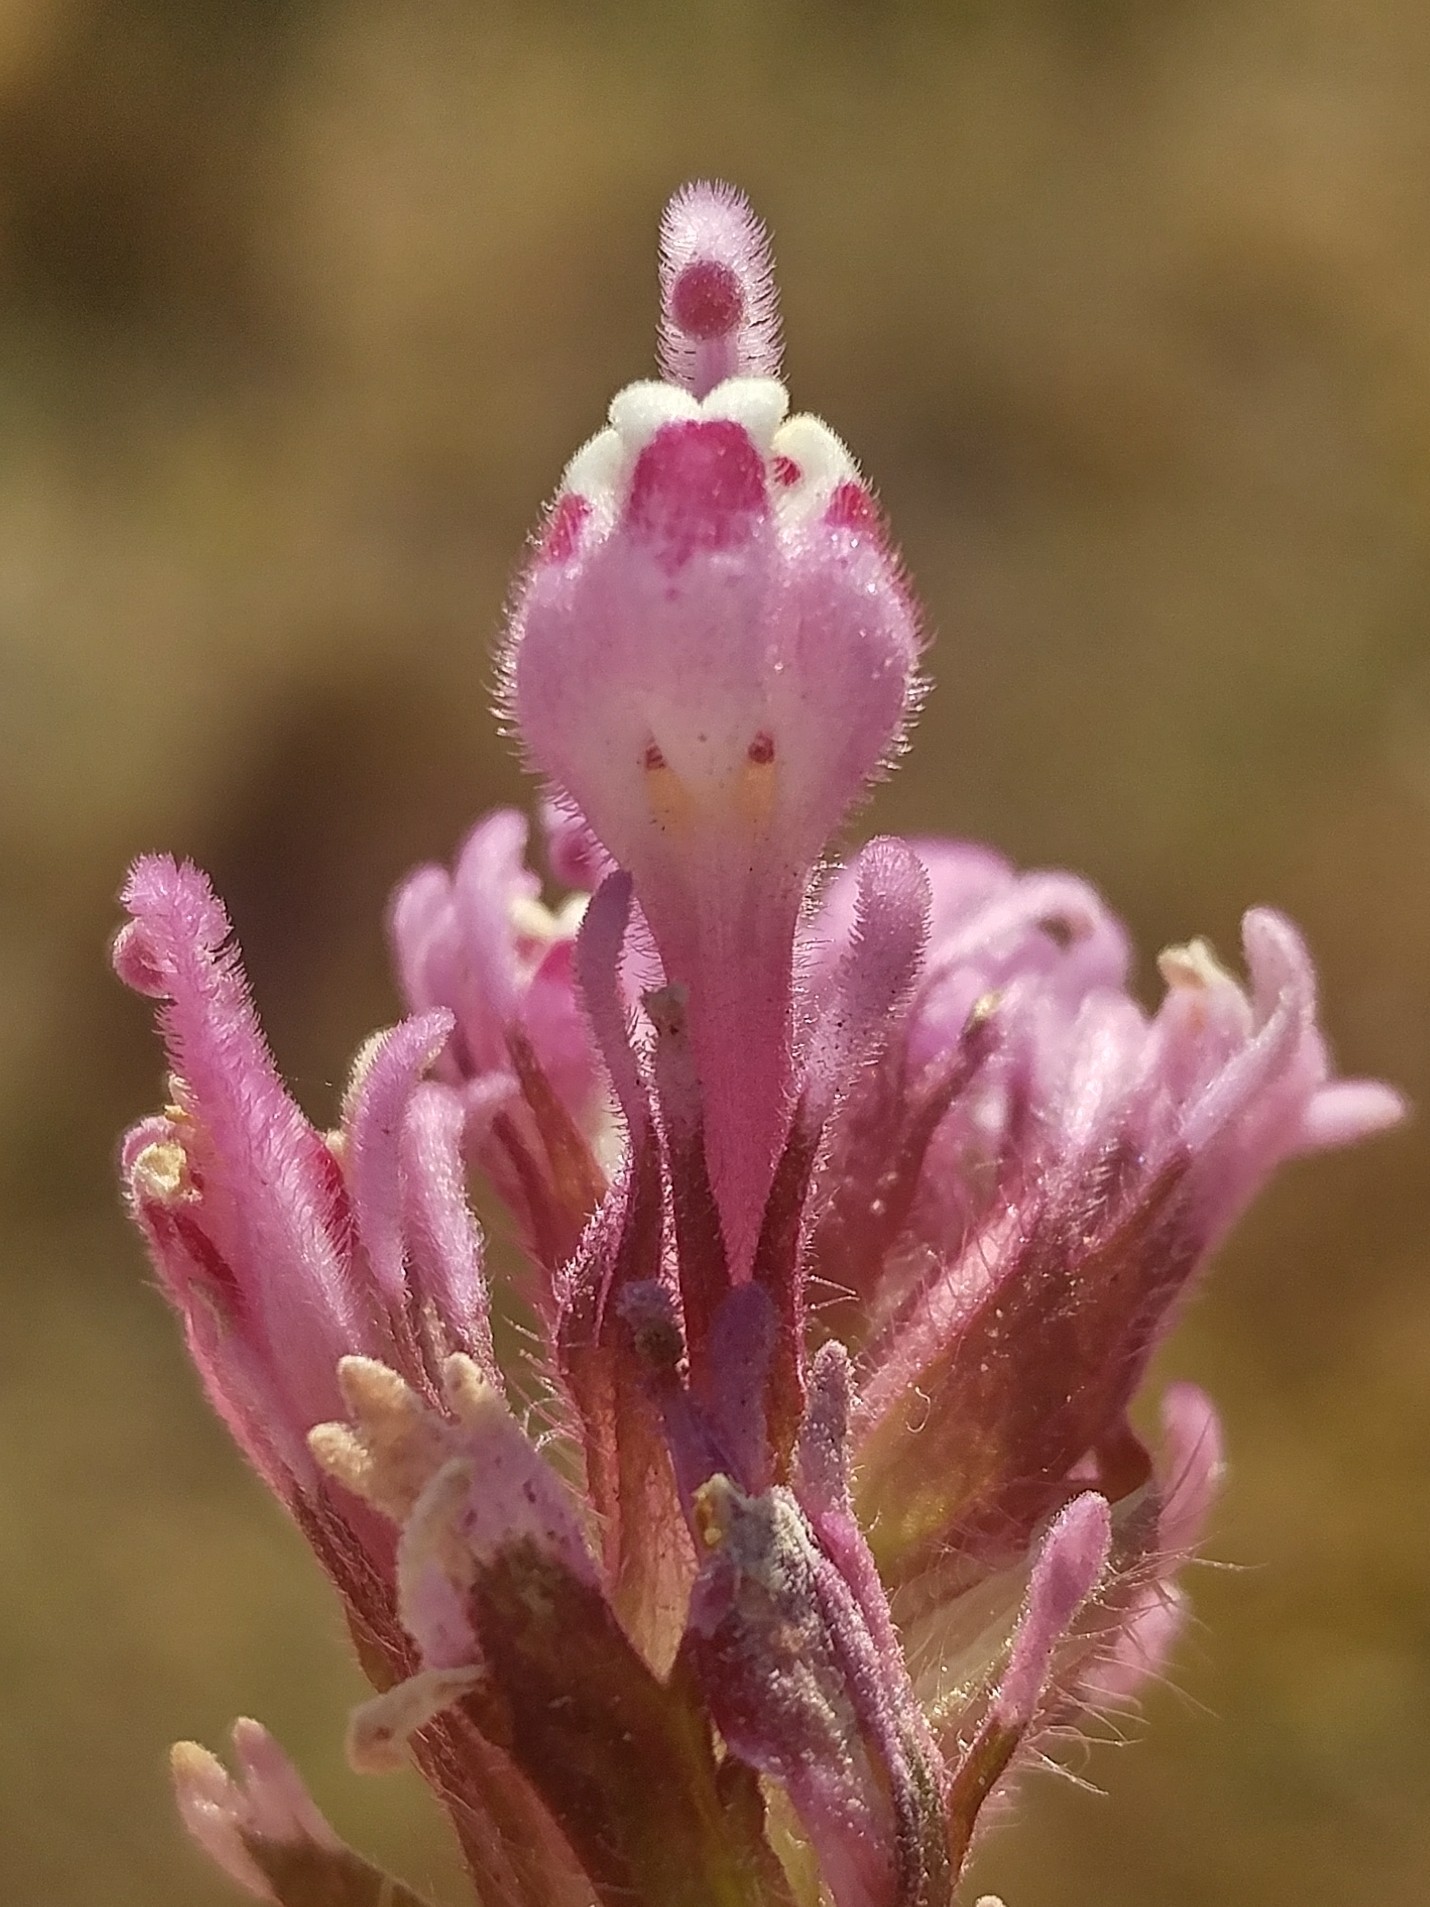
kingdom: Plantae
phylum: Tracheophyta
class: Magnoliopsida
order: Lamiales
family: Orobanchaceae
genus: Castilleja
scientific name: Castilleja exserta
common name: Purple owl-clover
